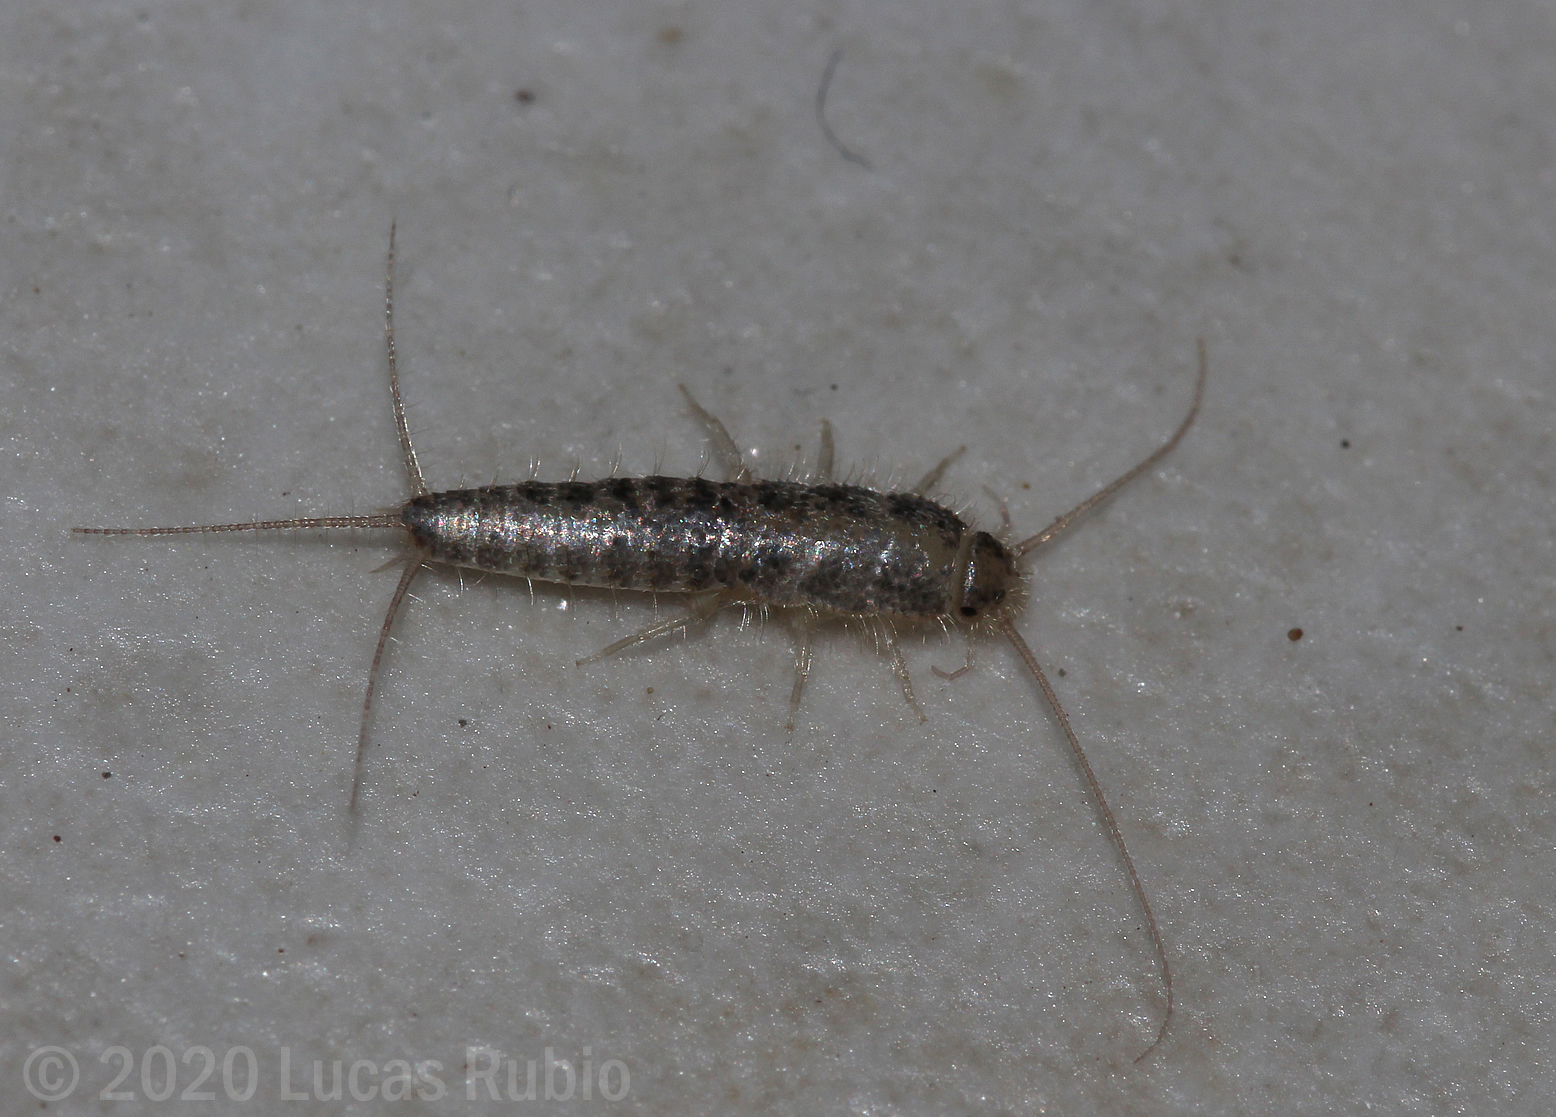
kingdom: Animalia
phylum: Arthropoda
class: Insecta
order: Zygentoma
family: Lepismatidae
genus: Ctenolepisma
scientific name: Ctenolepisma longicaudatum
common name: Silverfish
